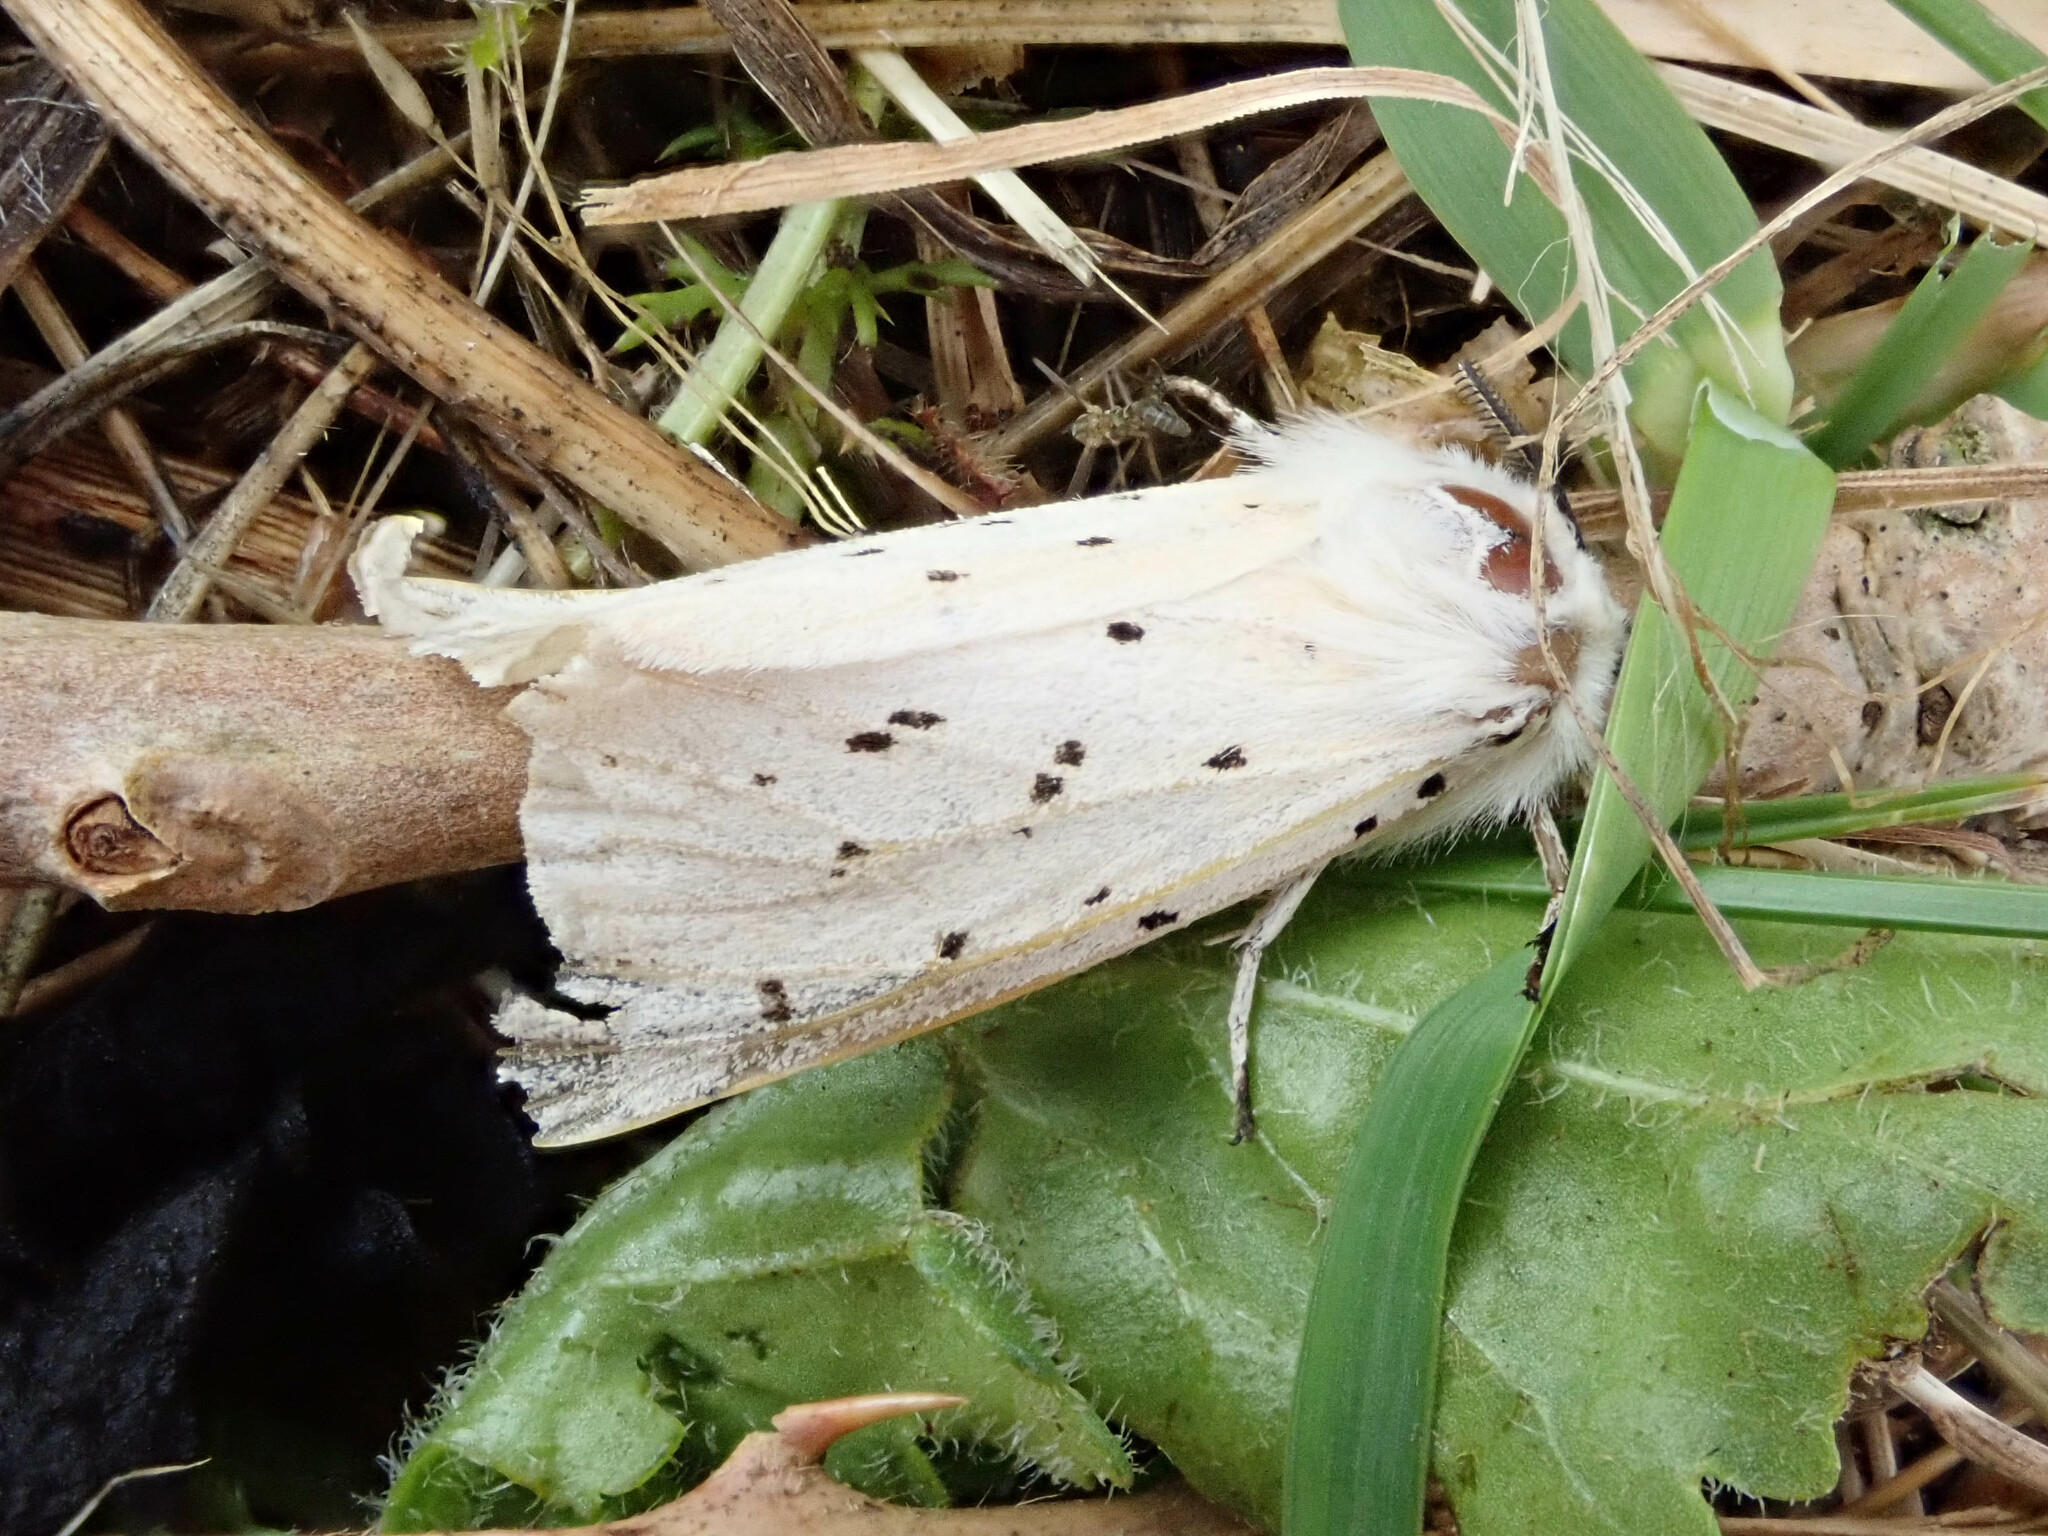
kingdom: Animalia
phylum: Arthropoda
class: Insecta
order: Lepidoptera
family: Erebidae
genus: Spilosoma
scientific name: Spilosoma lubricipeda
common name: White ermine
